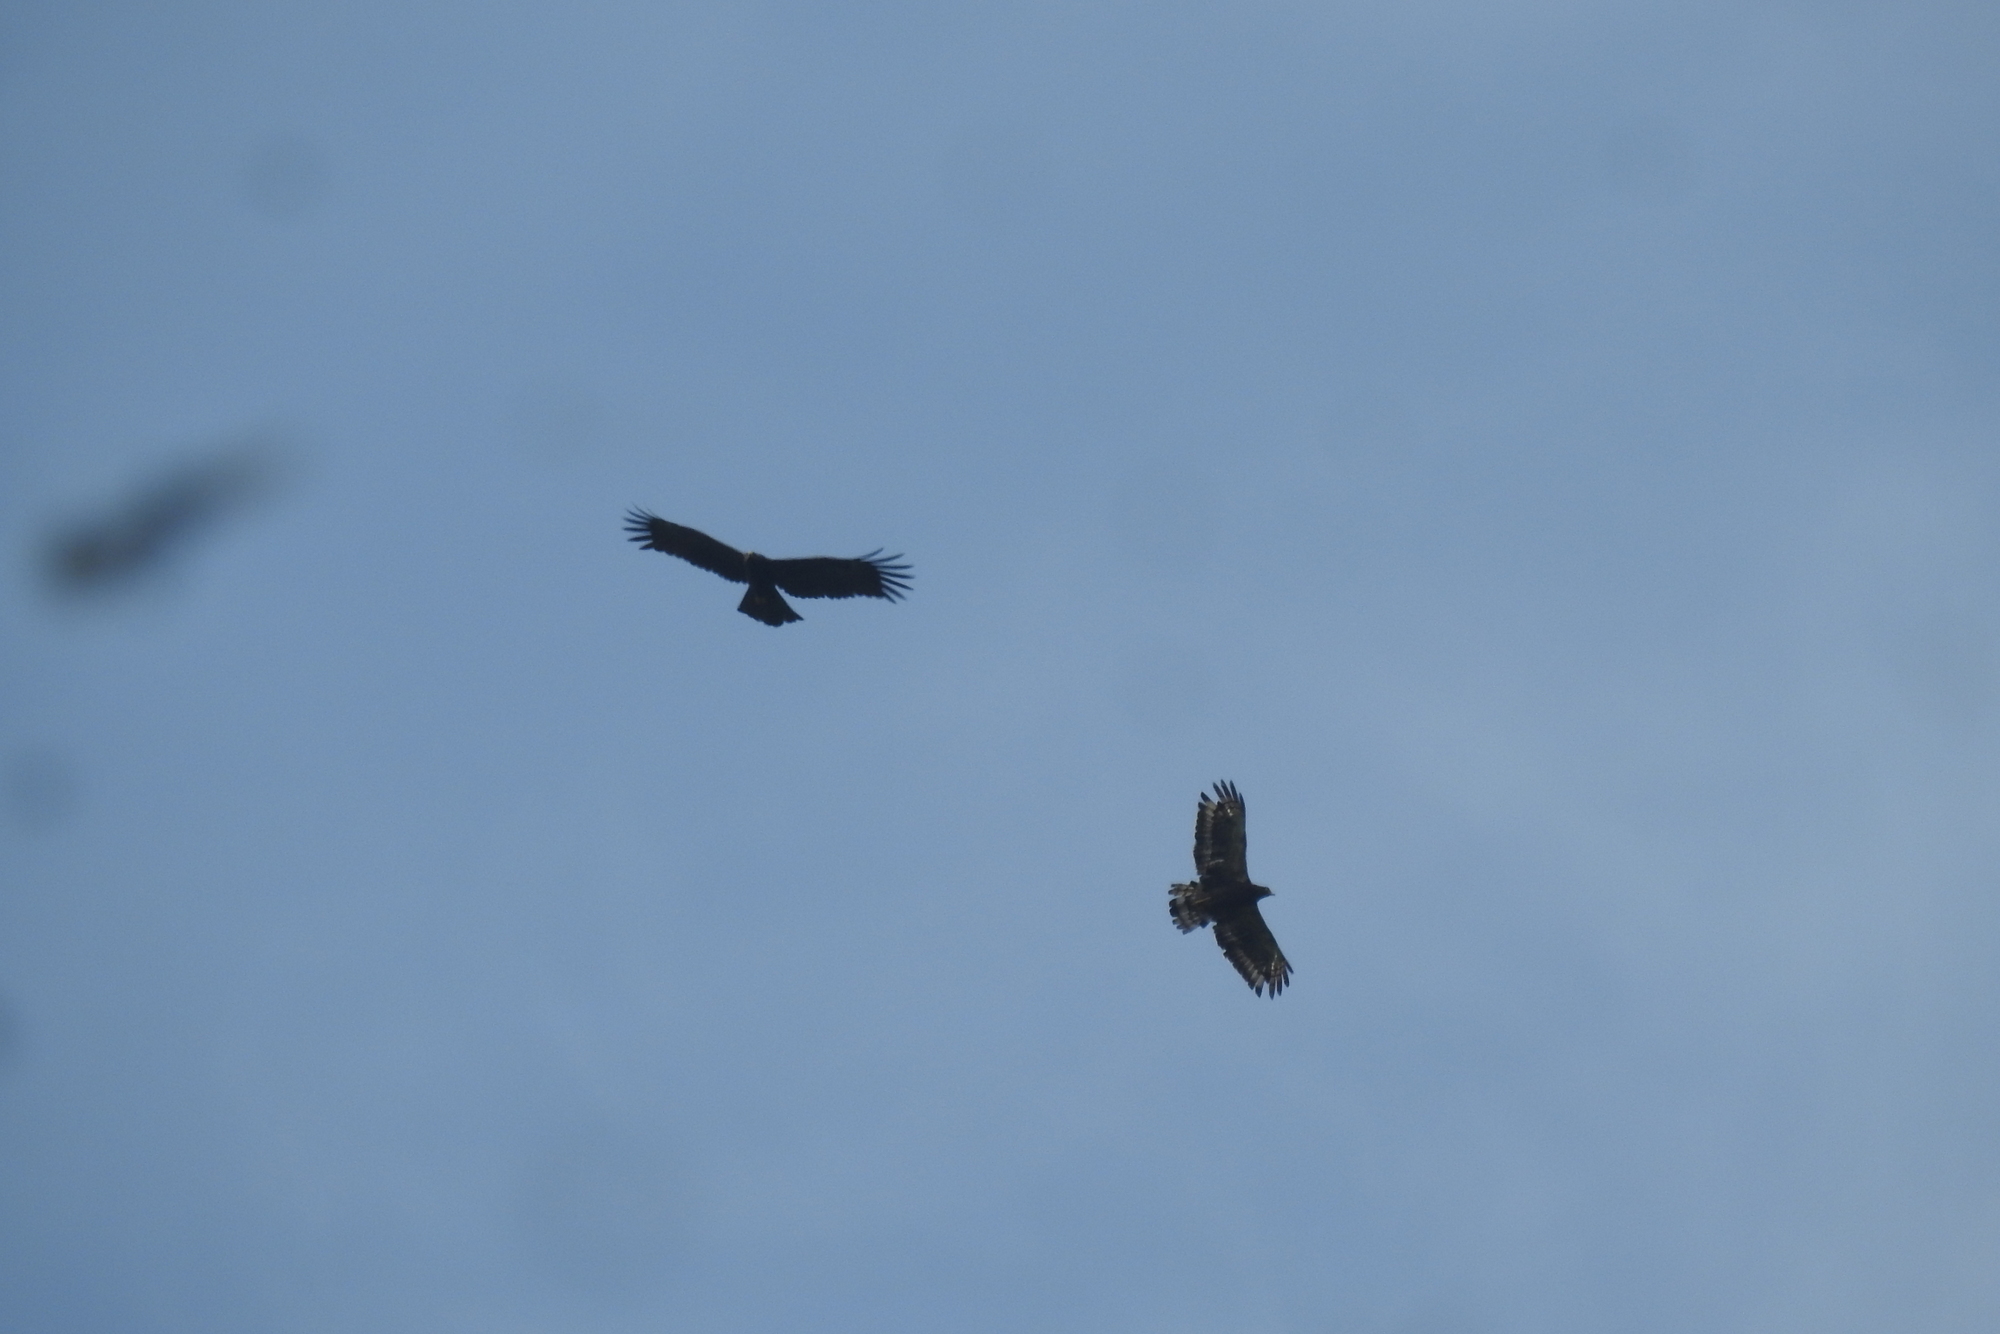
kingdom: Animalia
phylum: Chordata
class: Aves
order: Accipitriformes
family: Accipitridae
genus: Ictinaetus
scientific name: Ictinaetus malayensis
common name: Black eagle
